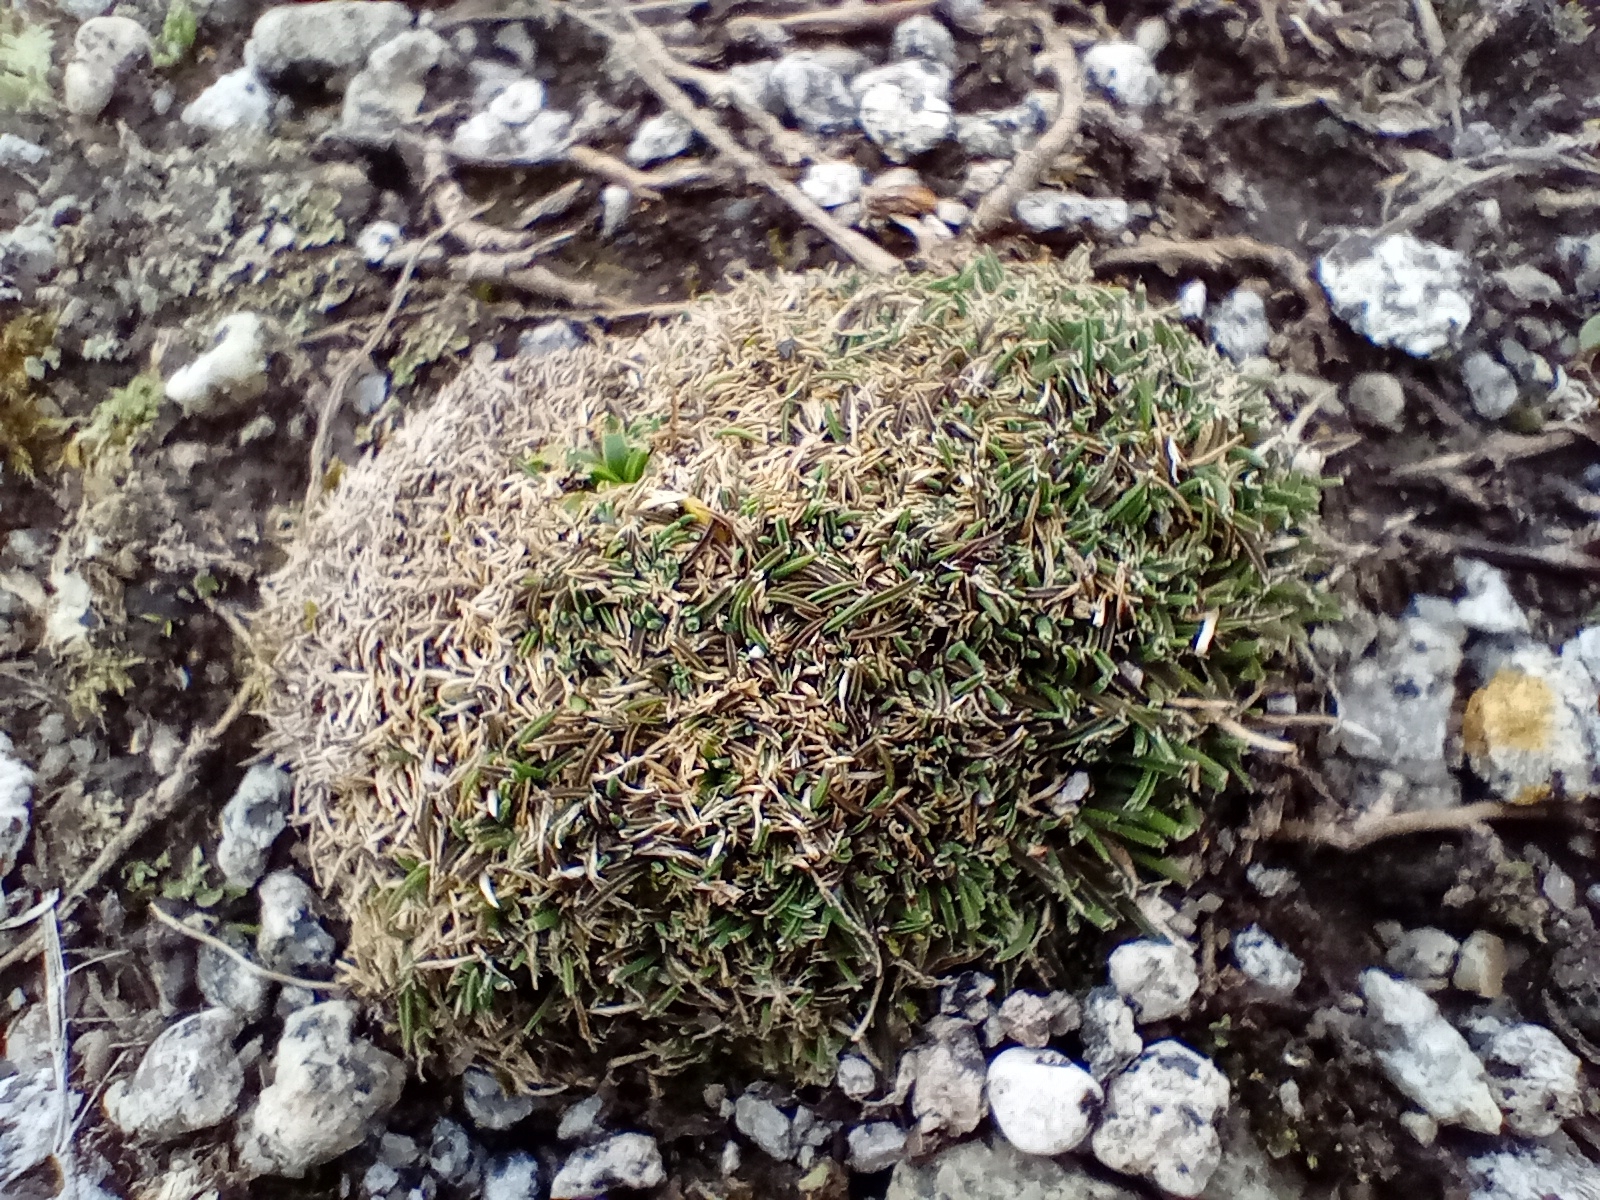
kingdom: Plantae
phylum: Tracheophyta
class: Liliopsida
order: Poales
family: Poaceae
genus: Agrostis
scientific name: Agrostis muscosa
